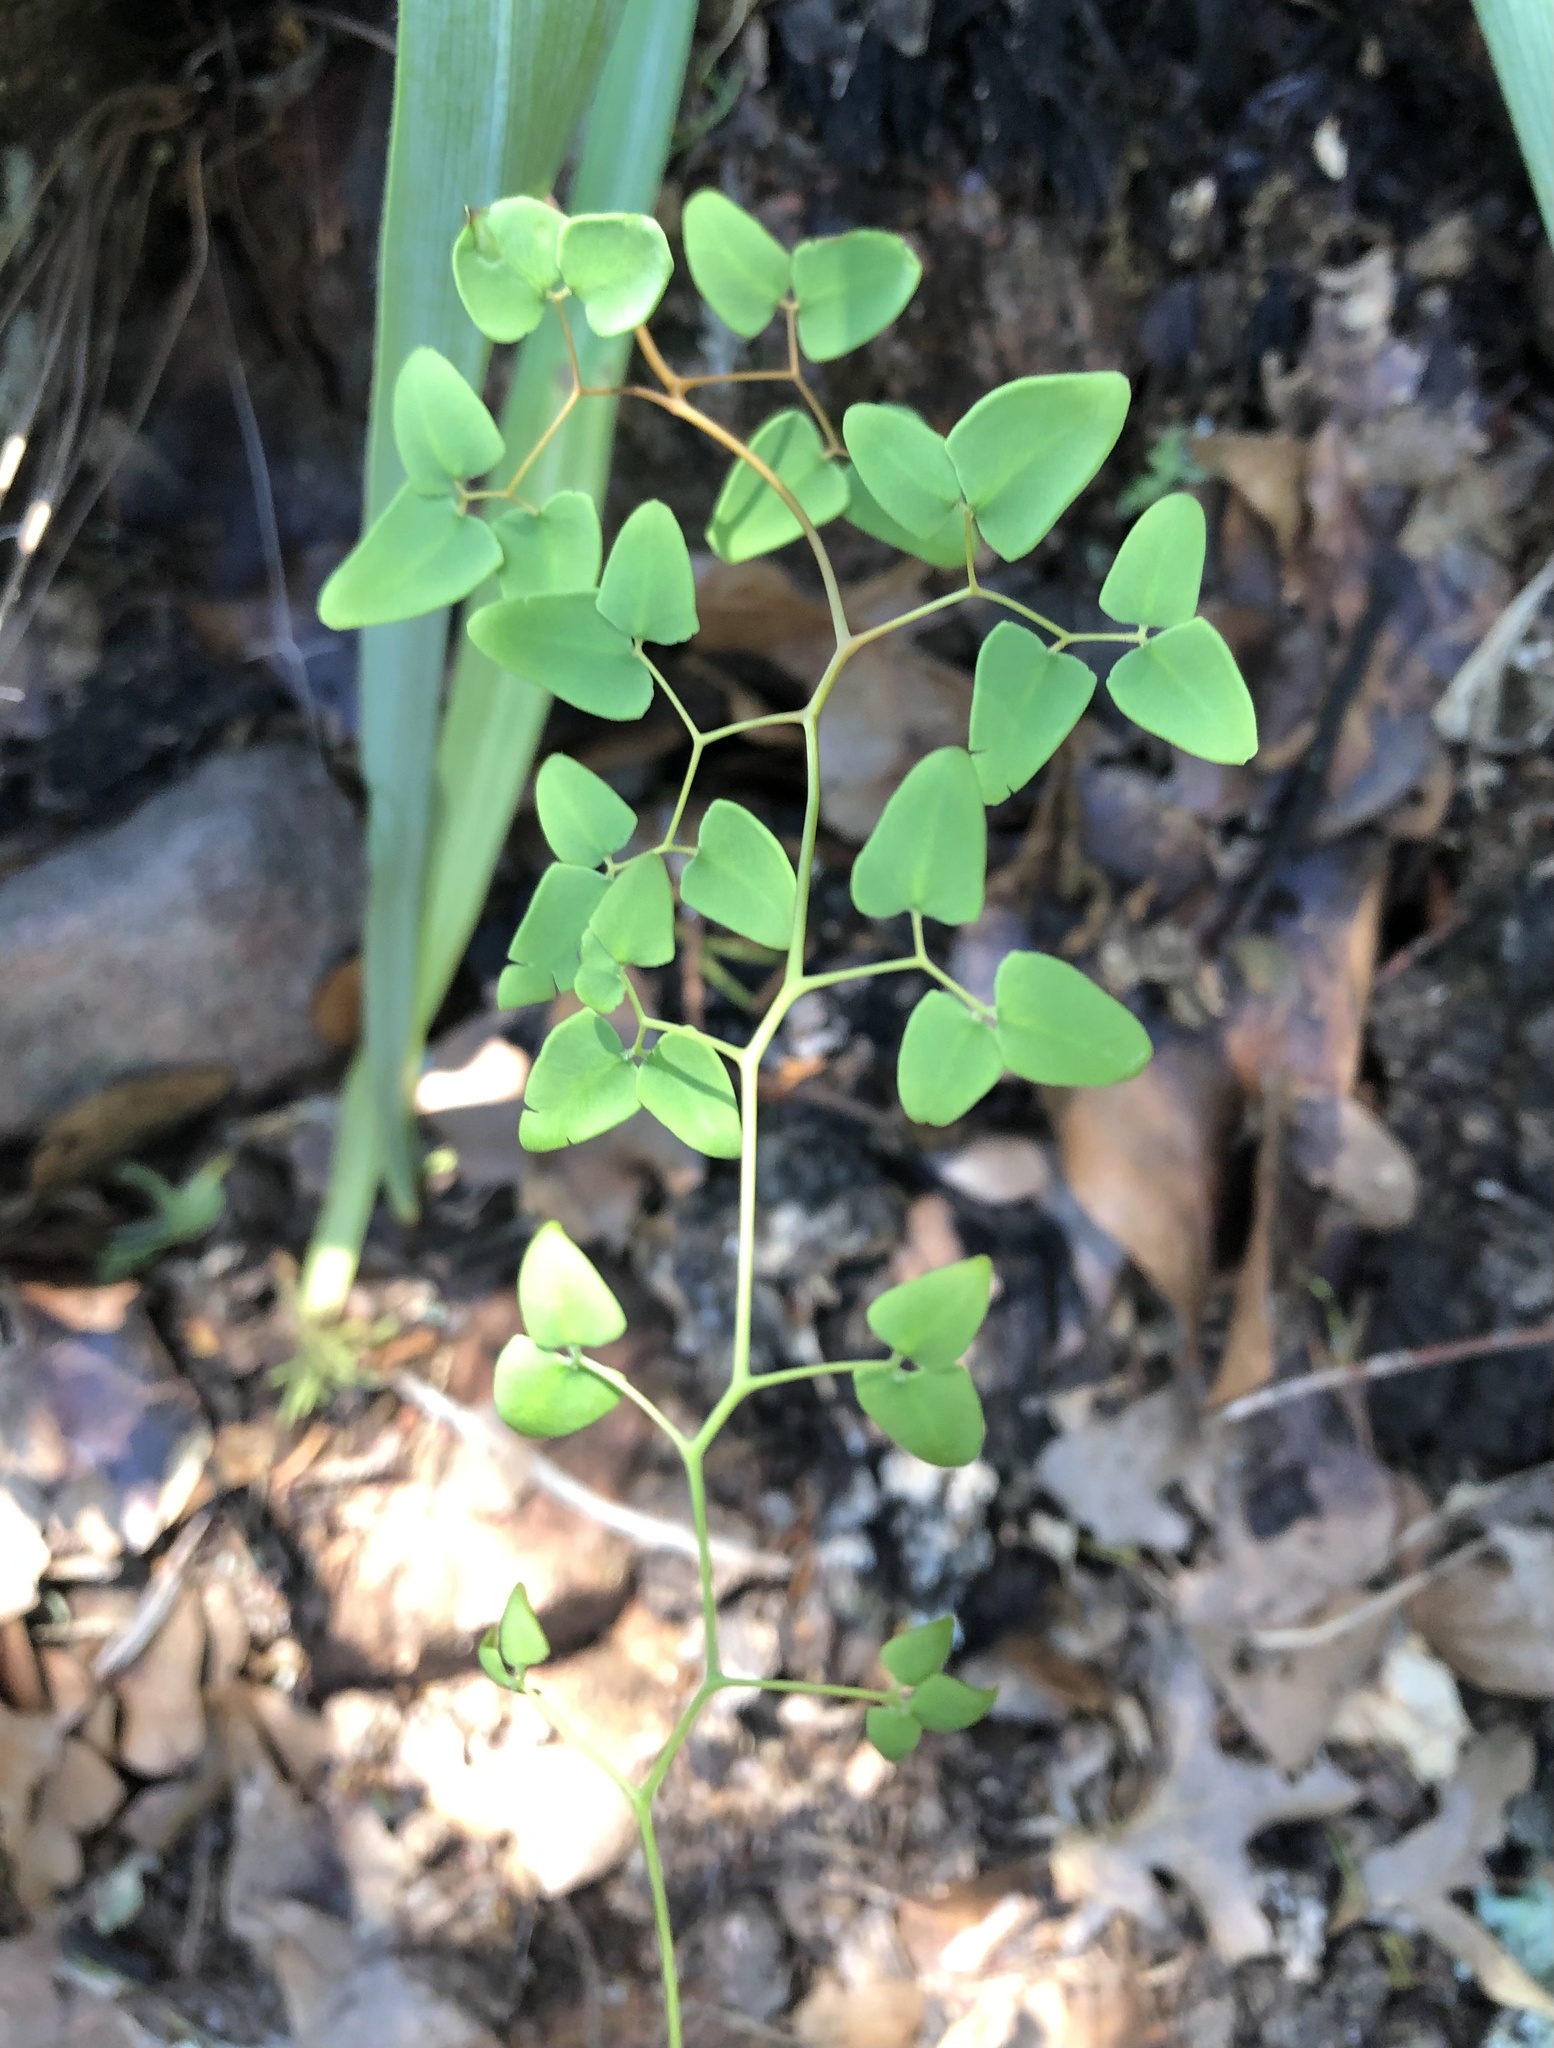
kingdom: Plantae
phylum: Tracheophyta
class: Polypodiopsida
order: Polypodiales
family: Pteridaceae
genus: Pellaea
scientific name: Pellaea ovata
